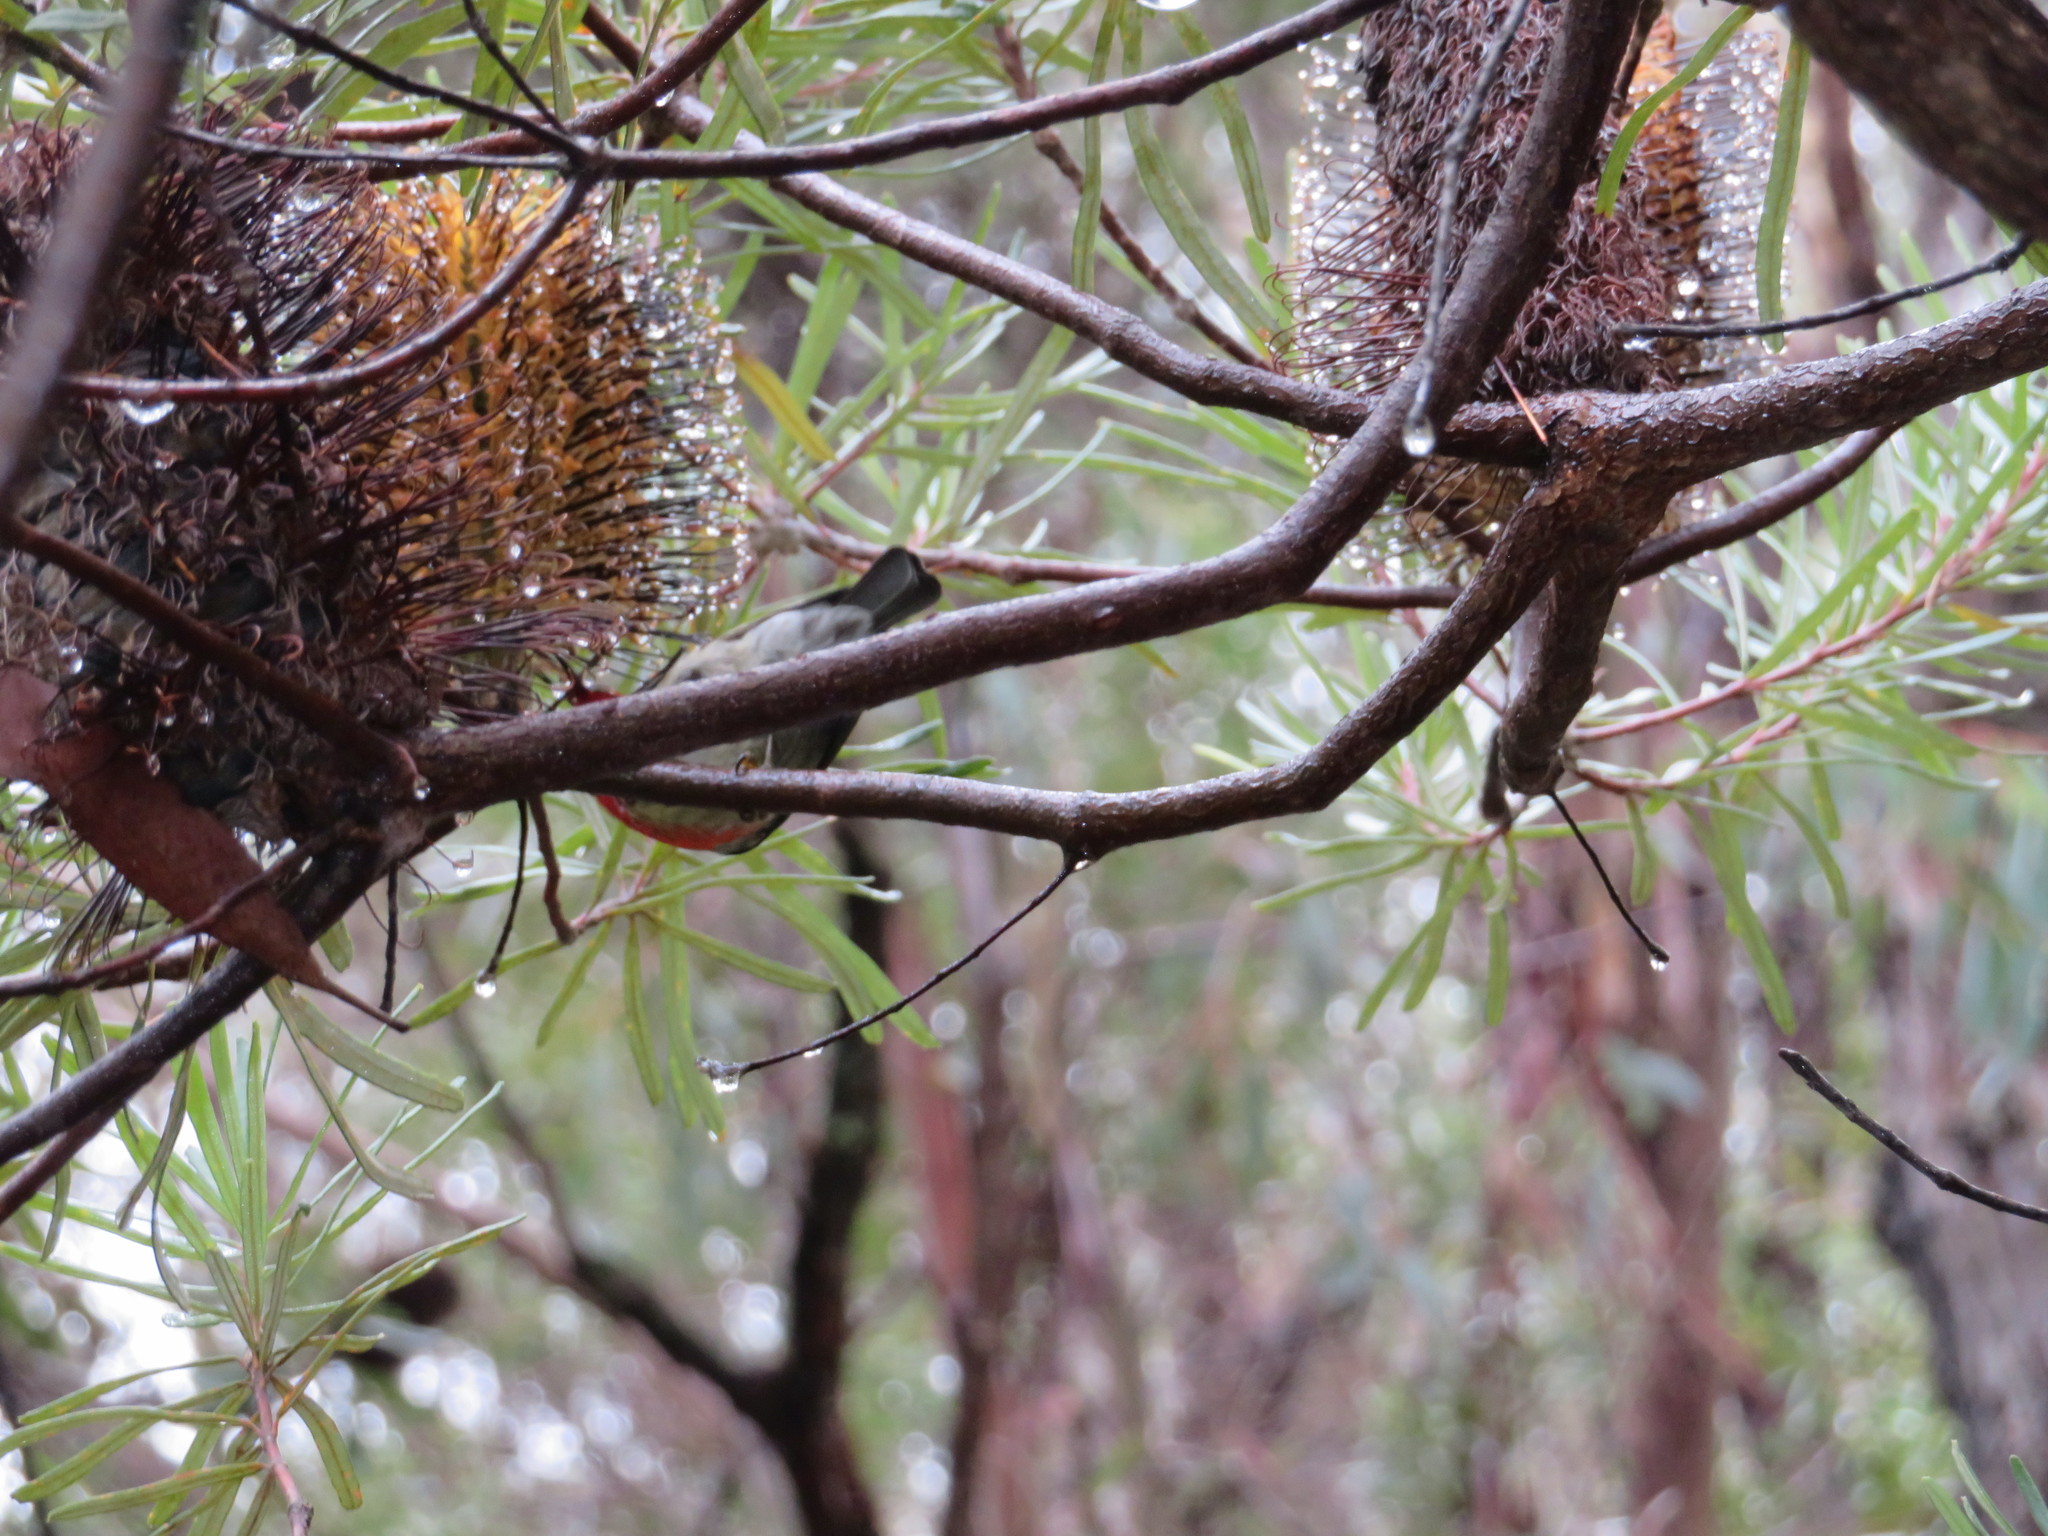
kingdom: Animalia
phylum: Chordata
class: Aves
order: Passeriformes
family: Meliphagidae
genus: Myzomela
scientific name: Myzomela sanguinolenta
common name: Scarlet myzomela
